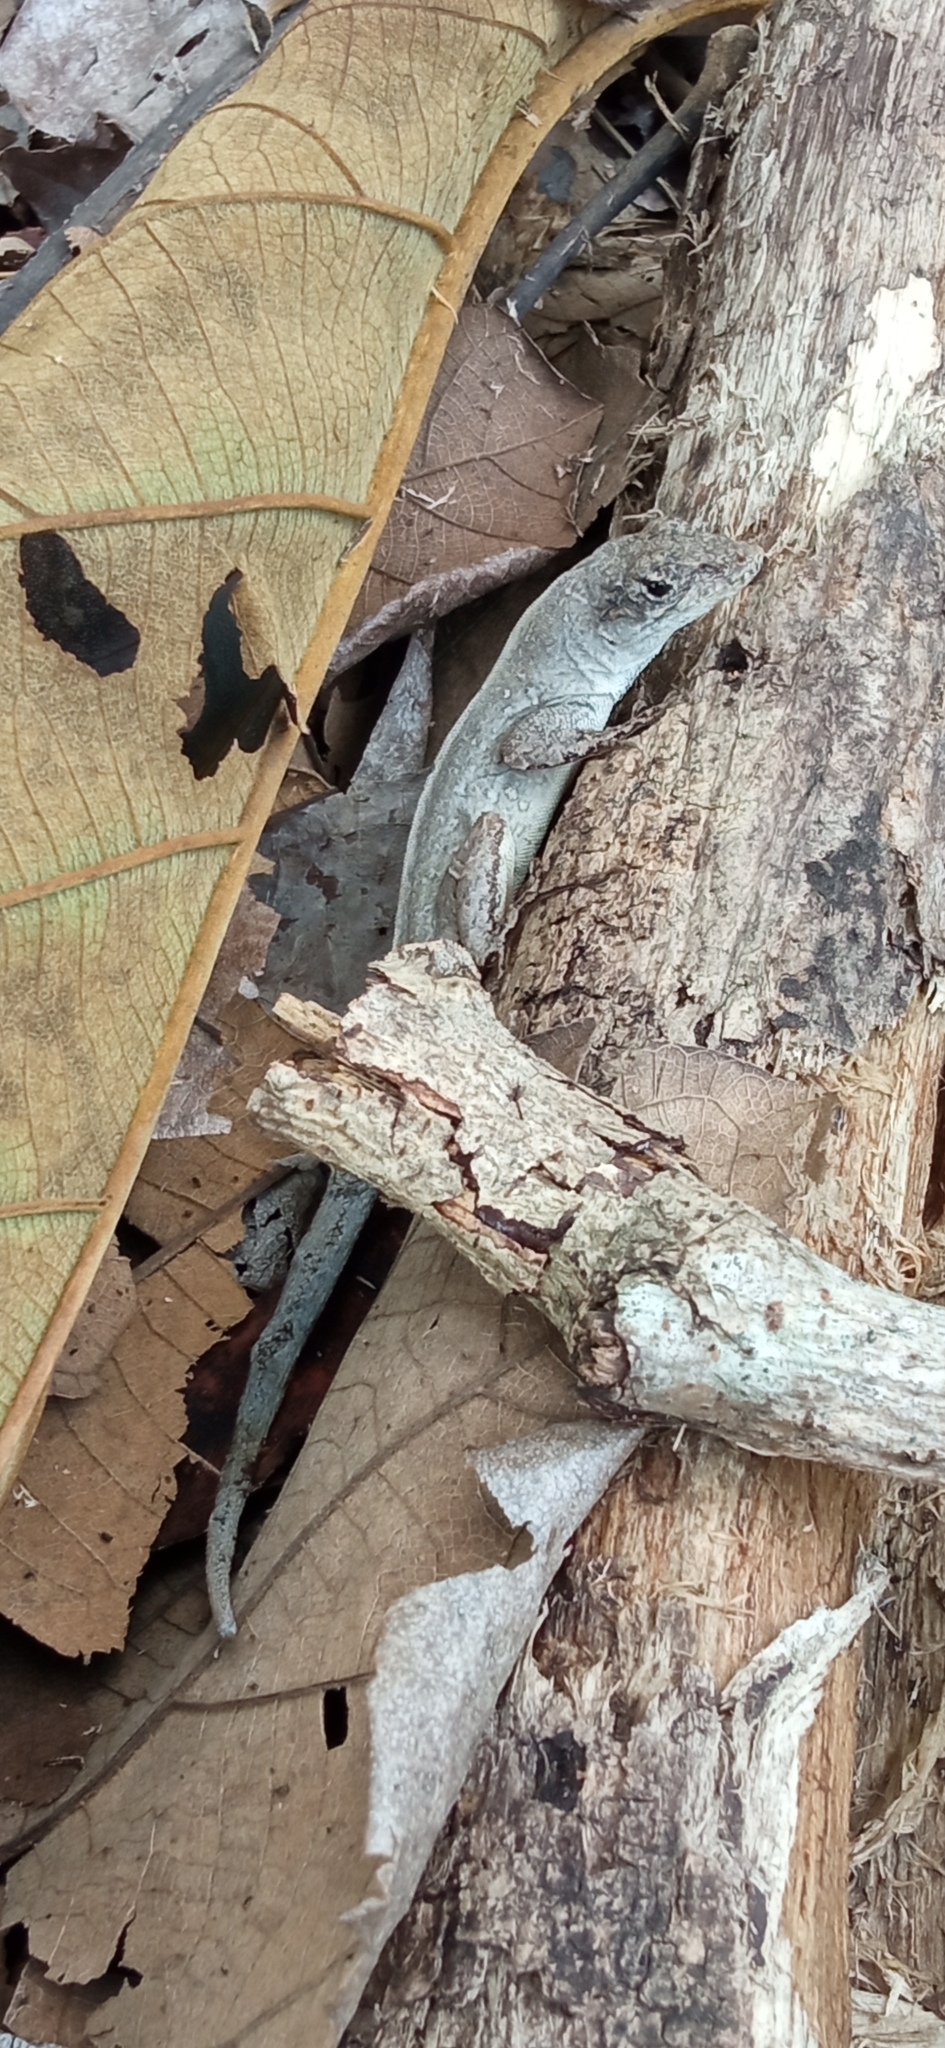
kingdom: Animalia
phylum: Chordata
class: Squamata
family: Dactyloidae
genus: Anolis
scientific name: Anolis gaigei
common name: Gaige’s anole
